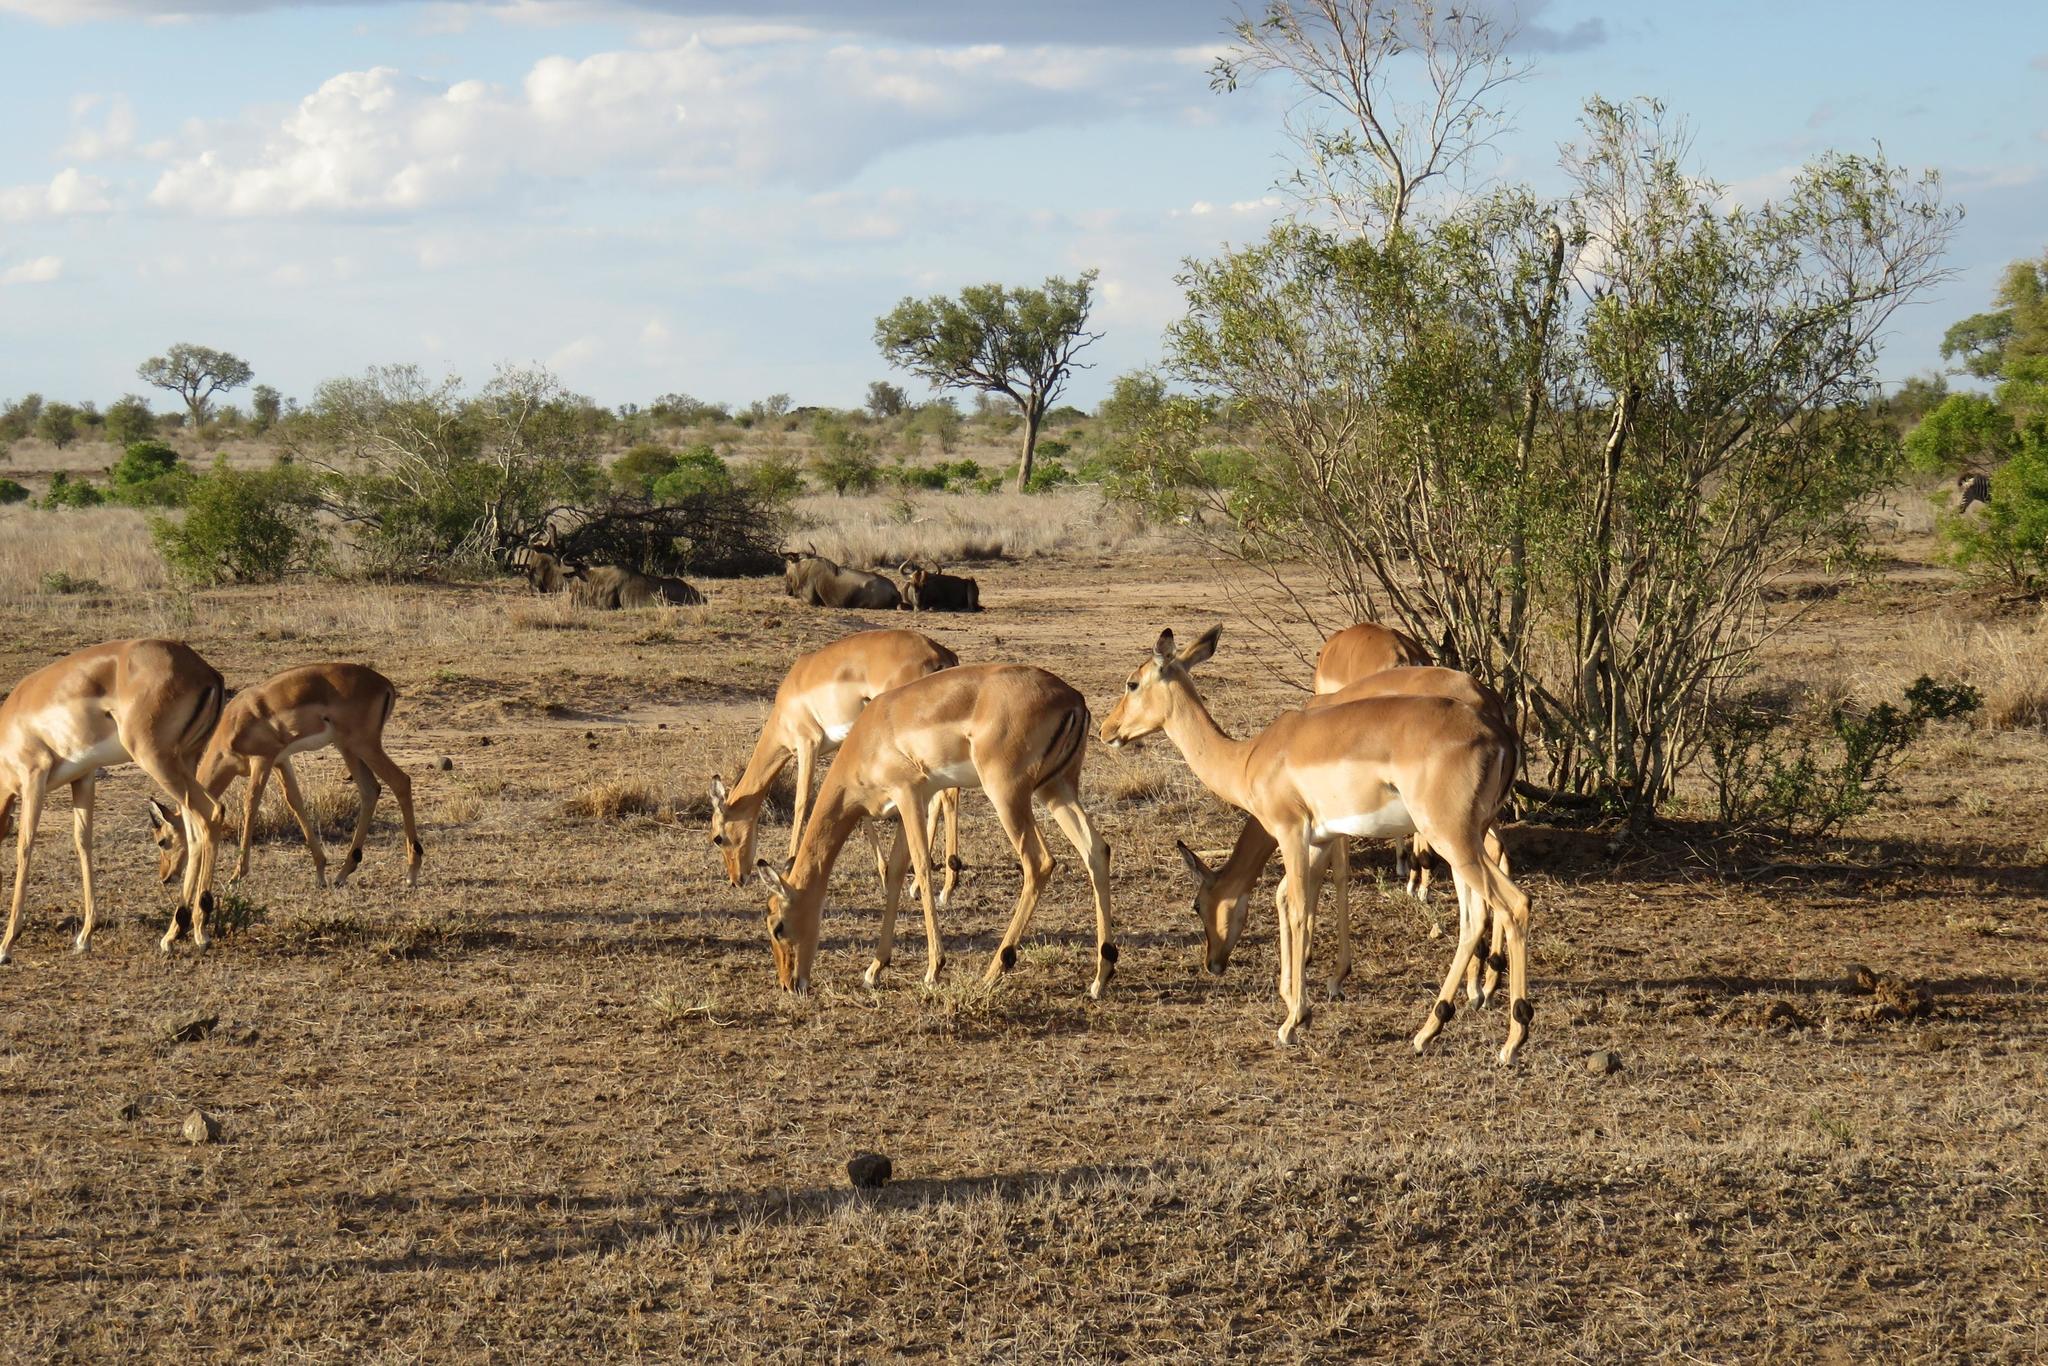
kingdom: Animalia
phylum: Chordata
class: Mammalia
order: Artiodactyla
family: Bovidae
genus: Aepyceros
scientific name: Aepyceros melampus
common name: Impala
